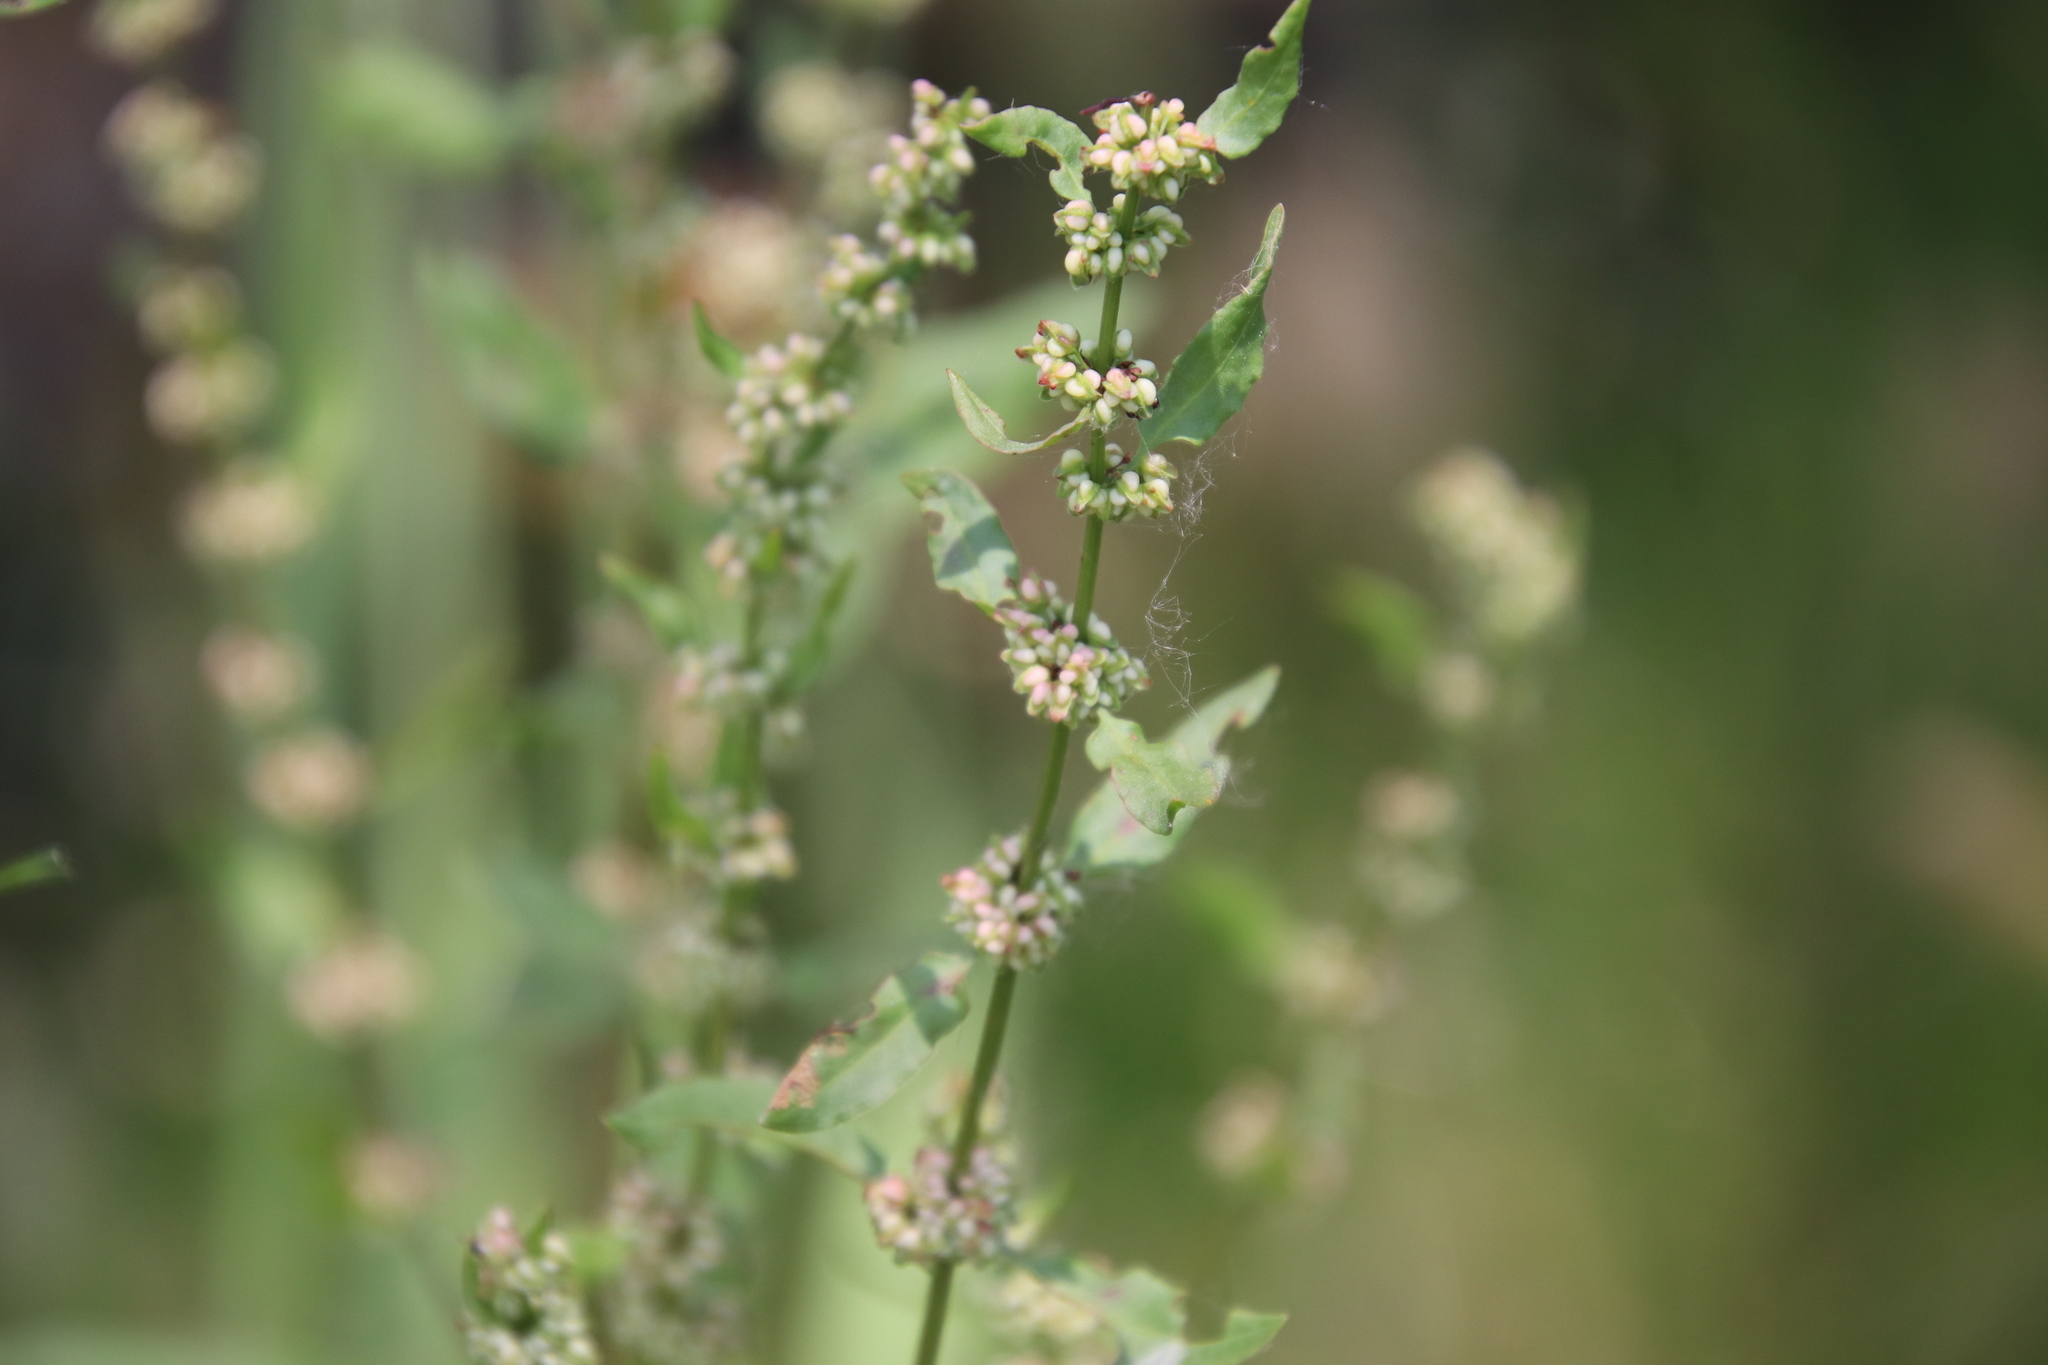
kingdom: Plantae
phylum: Tracheophyta
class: Magnoliopsida
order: Caryophyllales
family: Polygonaceae
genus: Rumex
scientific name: Rumex conglomeratus
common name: Clustered dock
